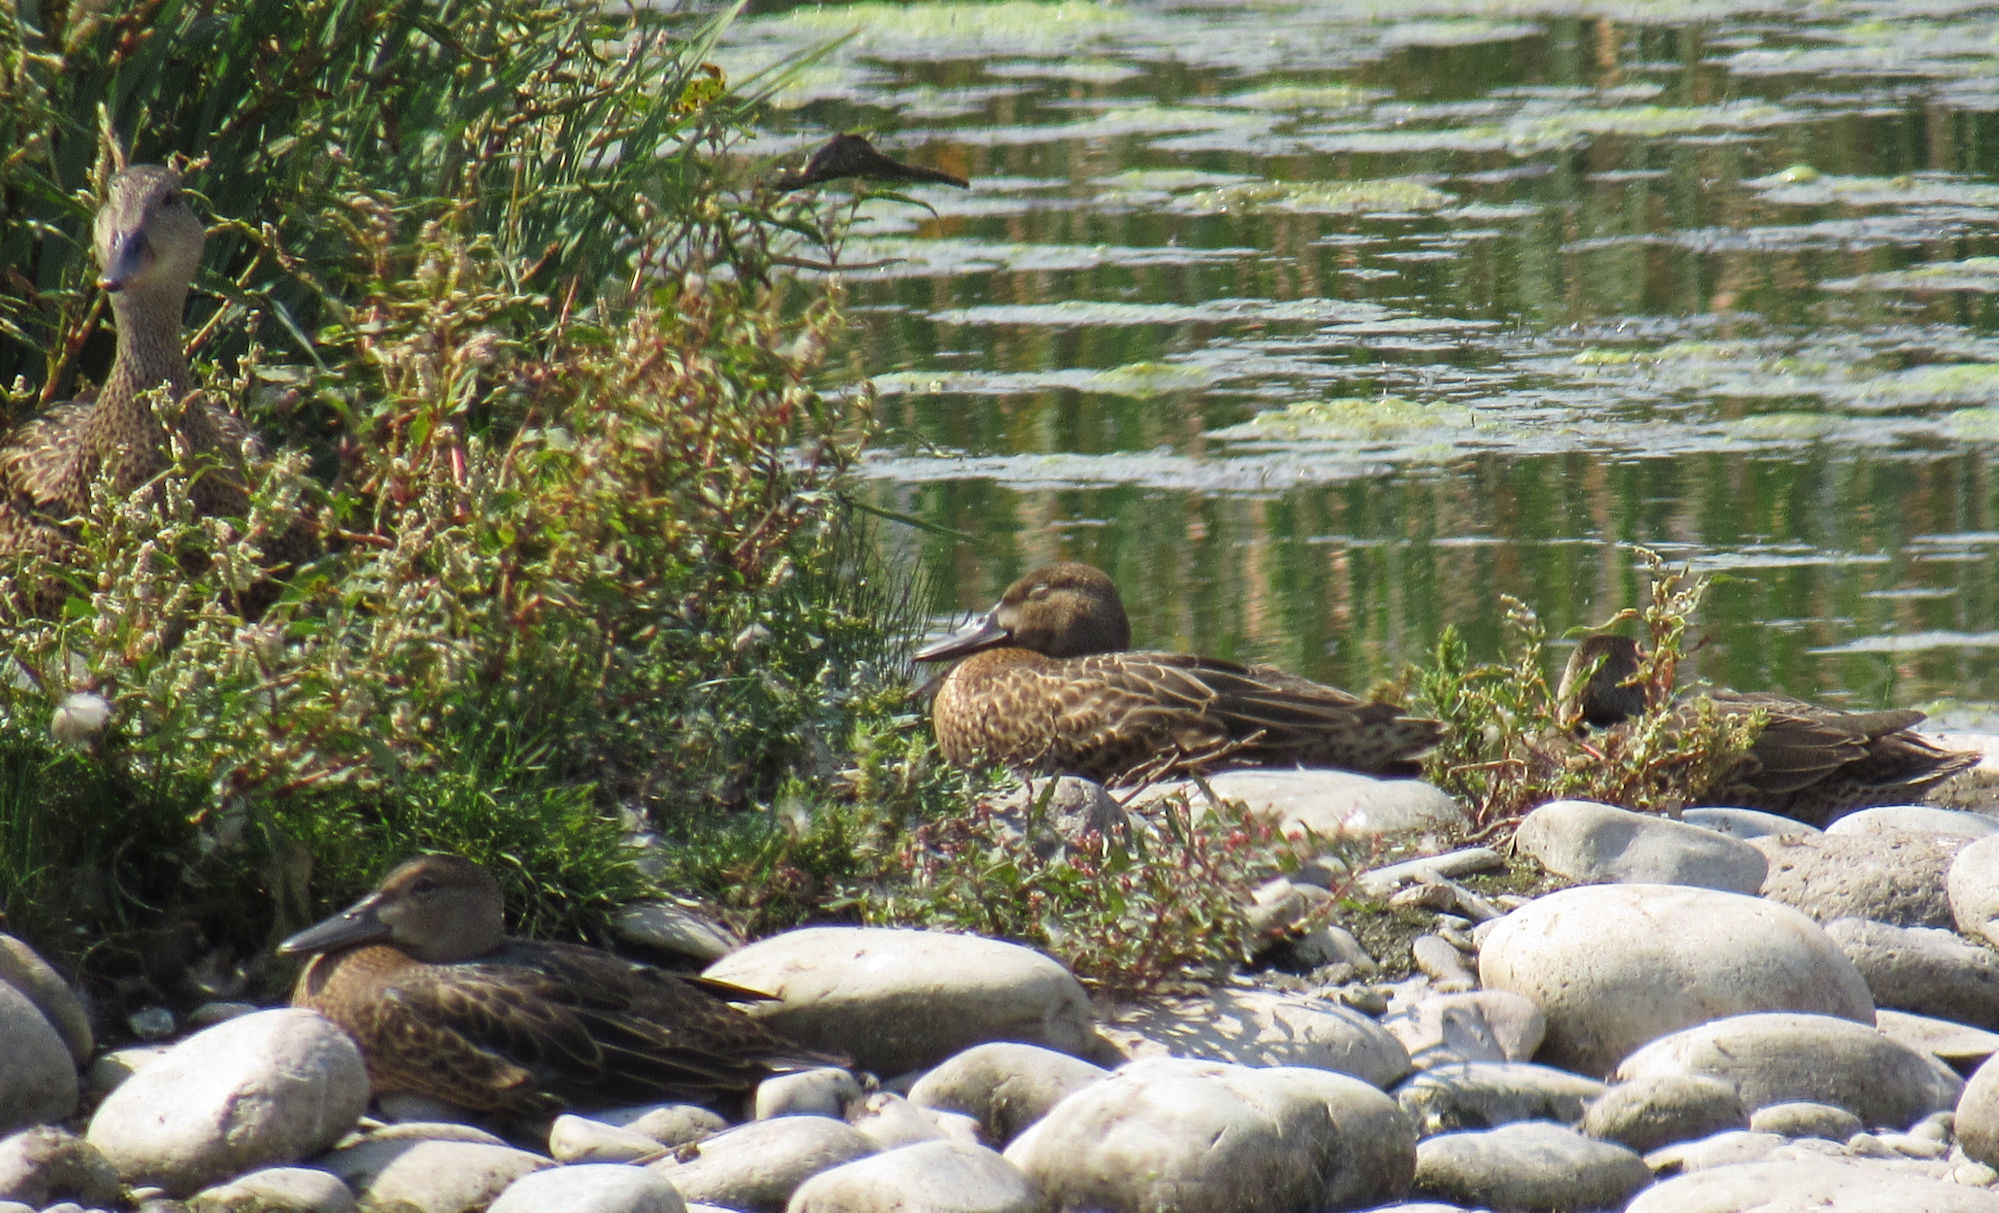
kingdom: Animalia
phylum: Chordata
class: Aves
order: Anseriformes
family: Anatidae
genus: Spatula
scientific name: Spatula cyanoptera
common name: Cinnamon teal
